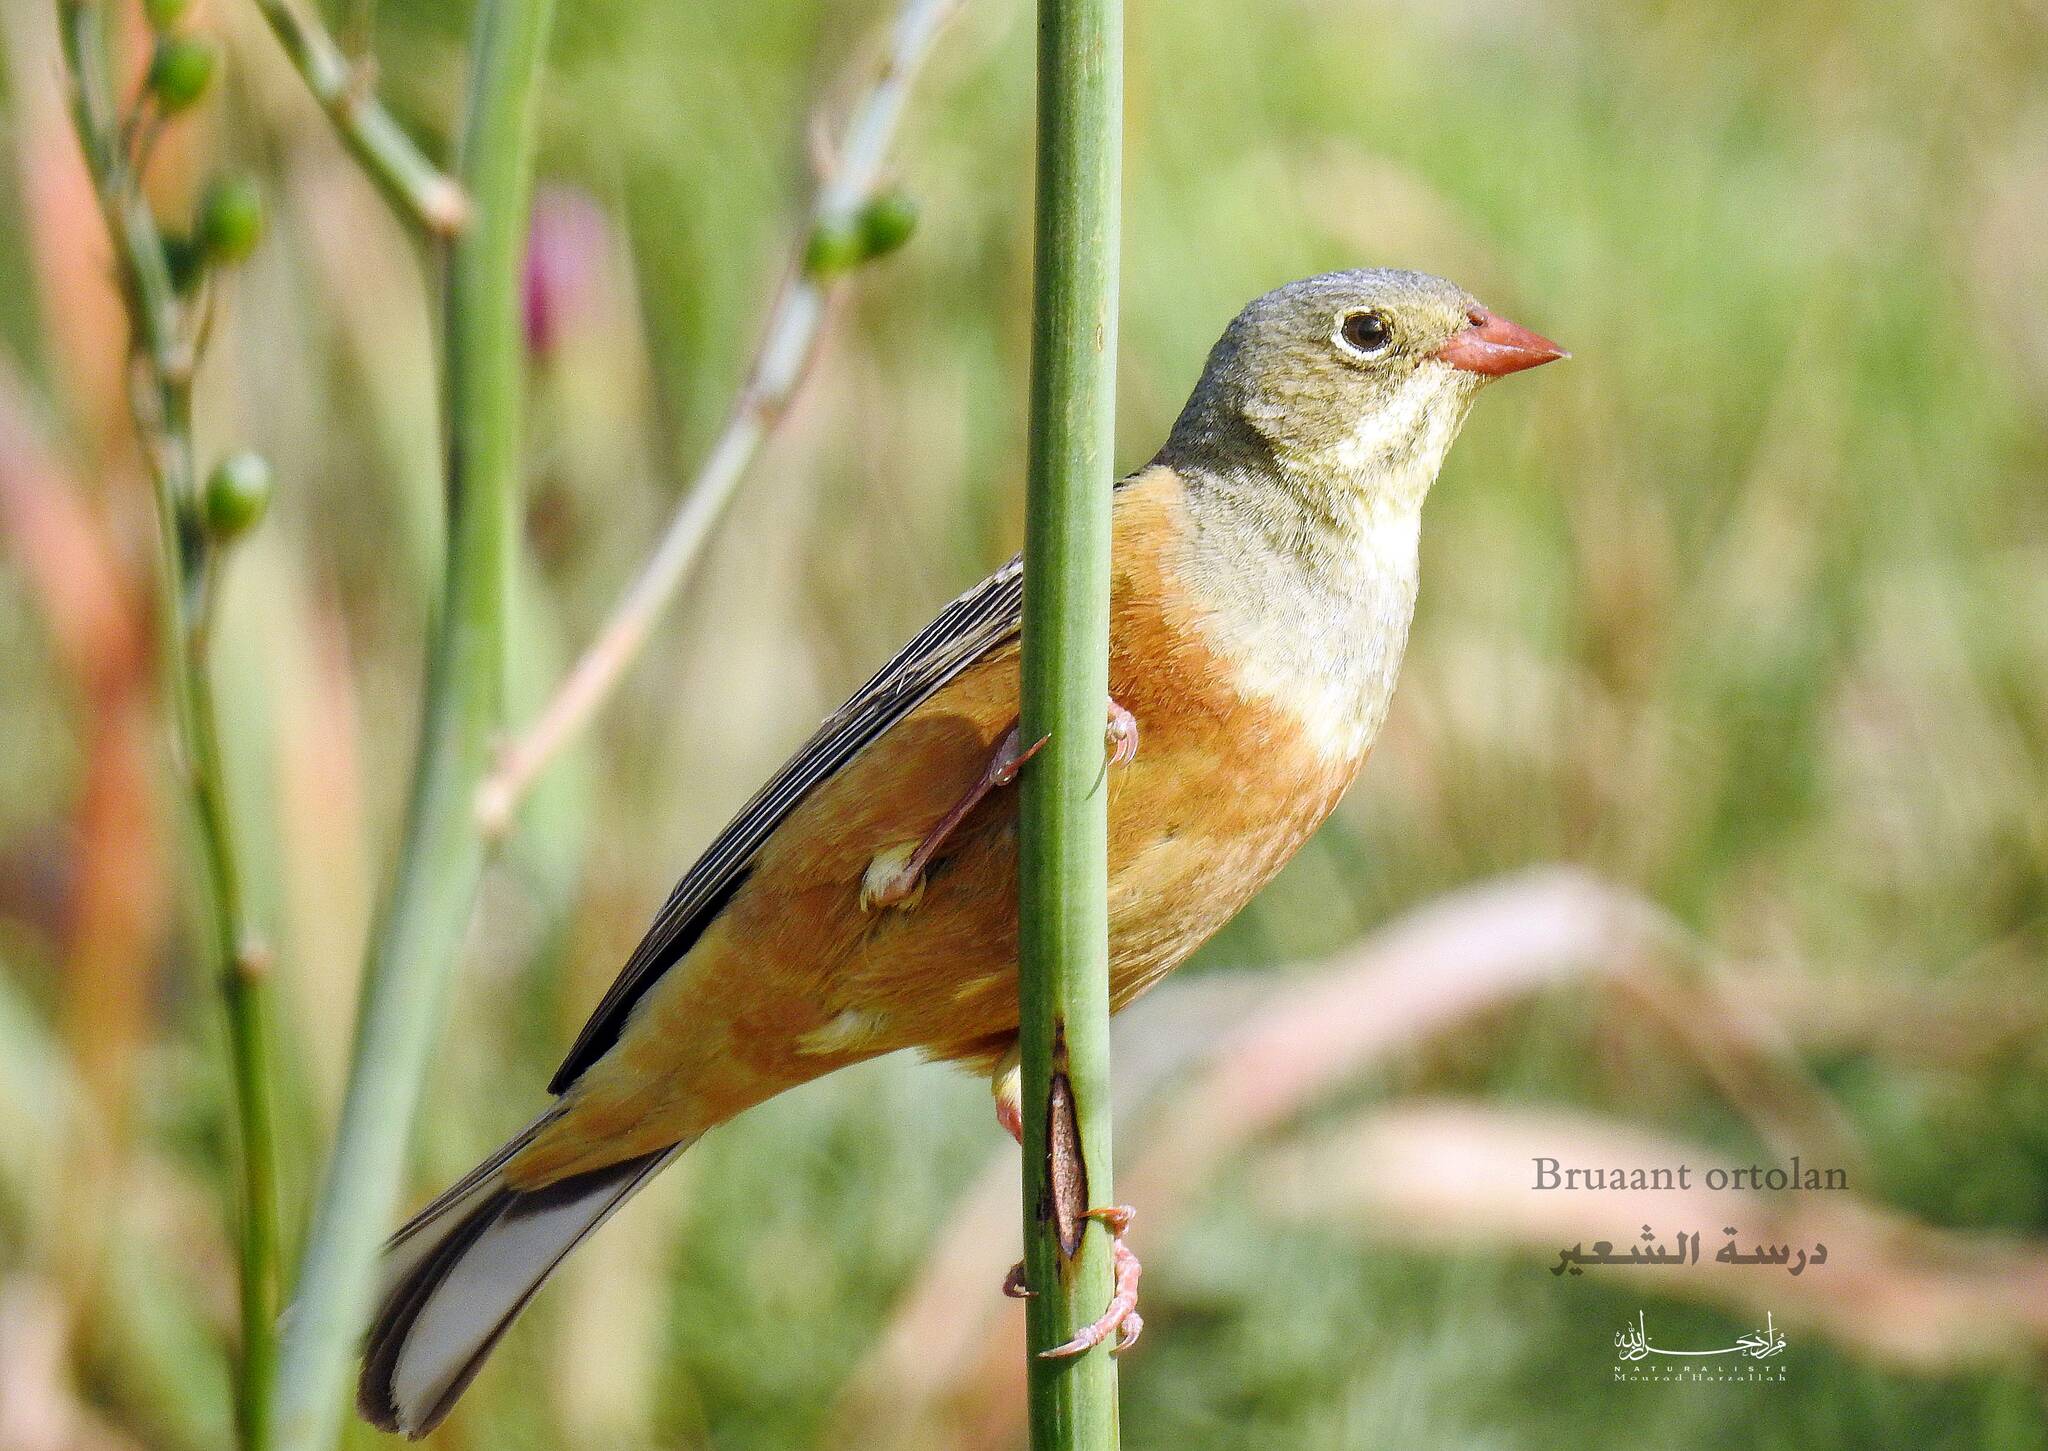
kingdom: Animalia
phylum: Chordata
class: Aves
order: Passeriformes
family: Emberizidae
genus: Emberiza
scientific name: Emberiza hortulana
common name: Ortolan bunting
